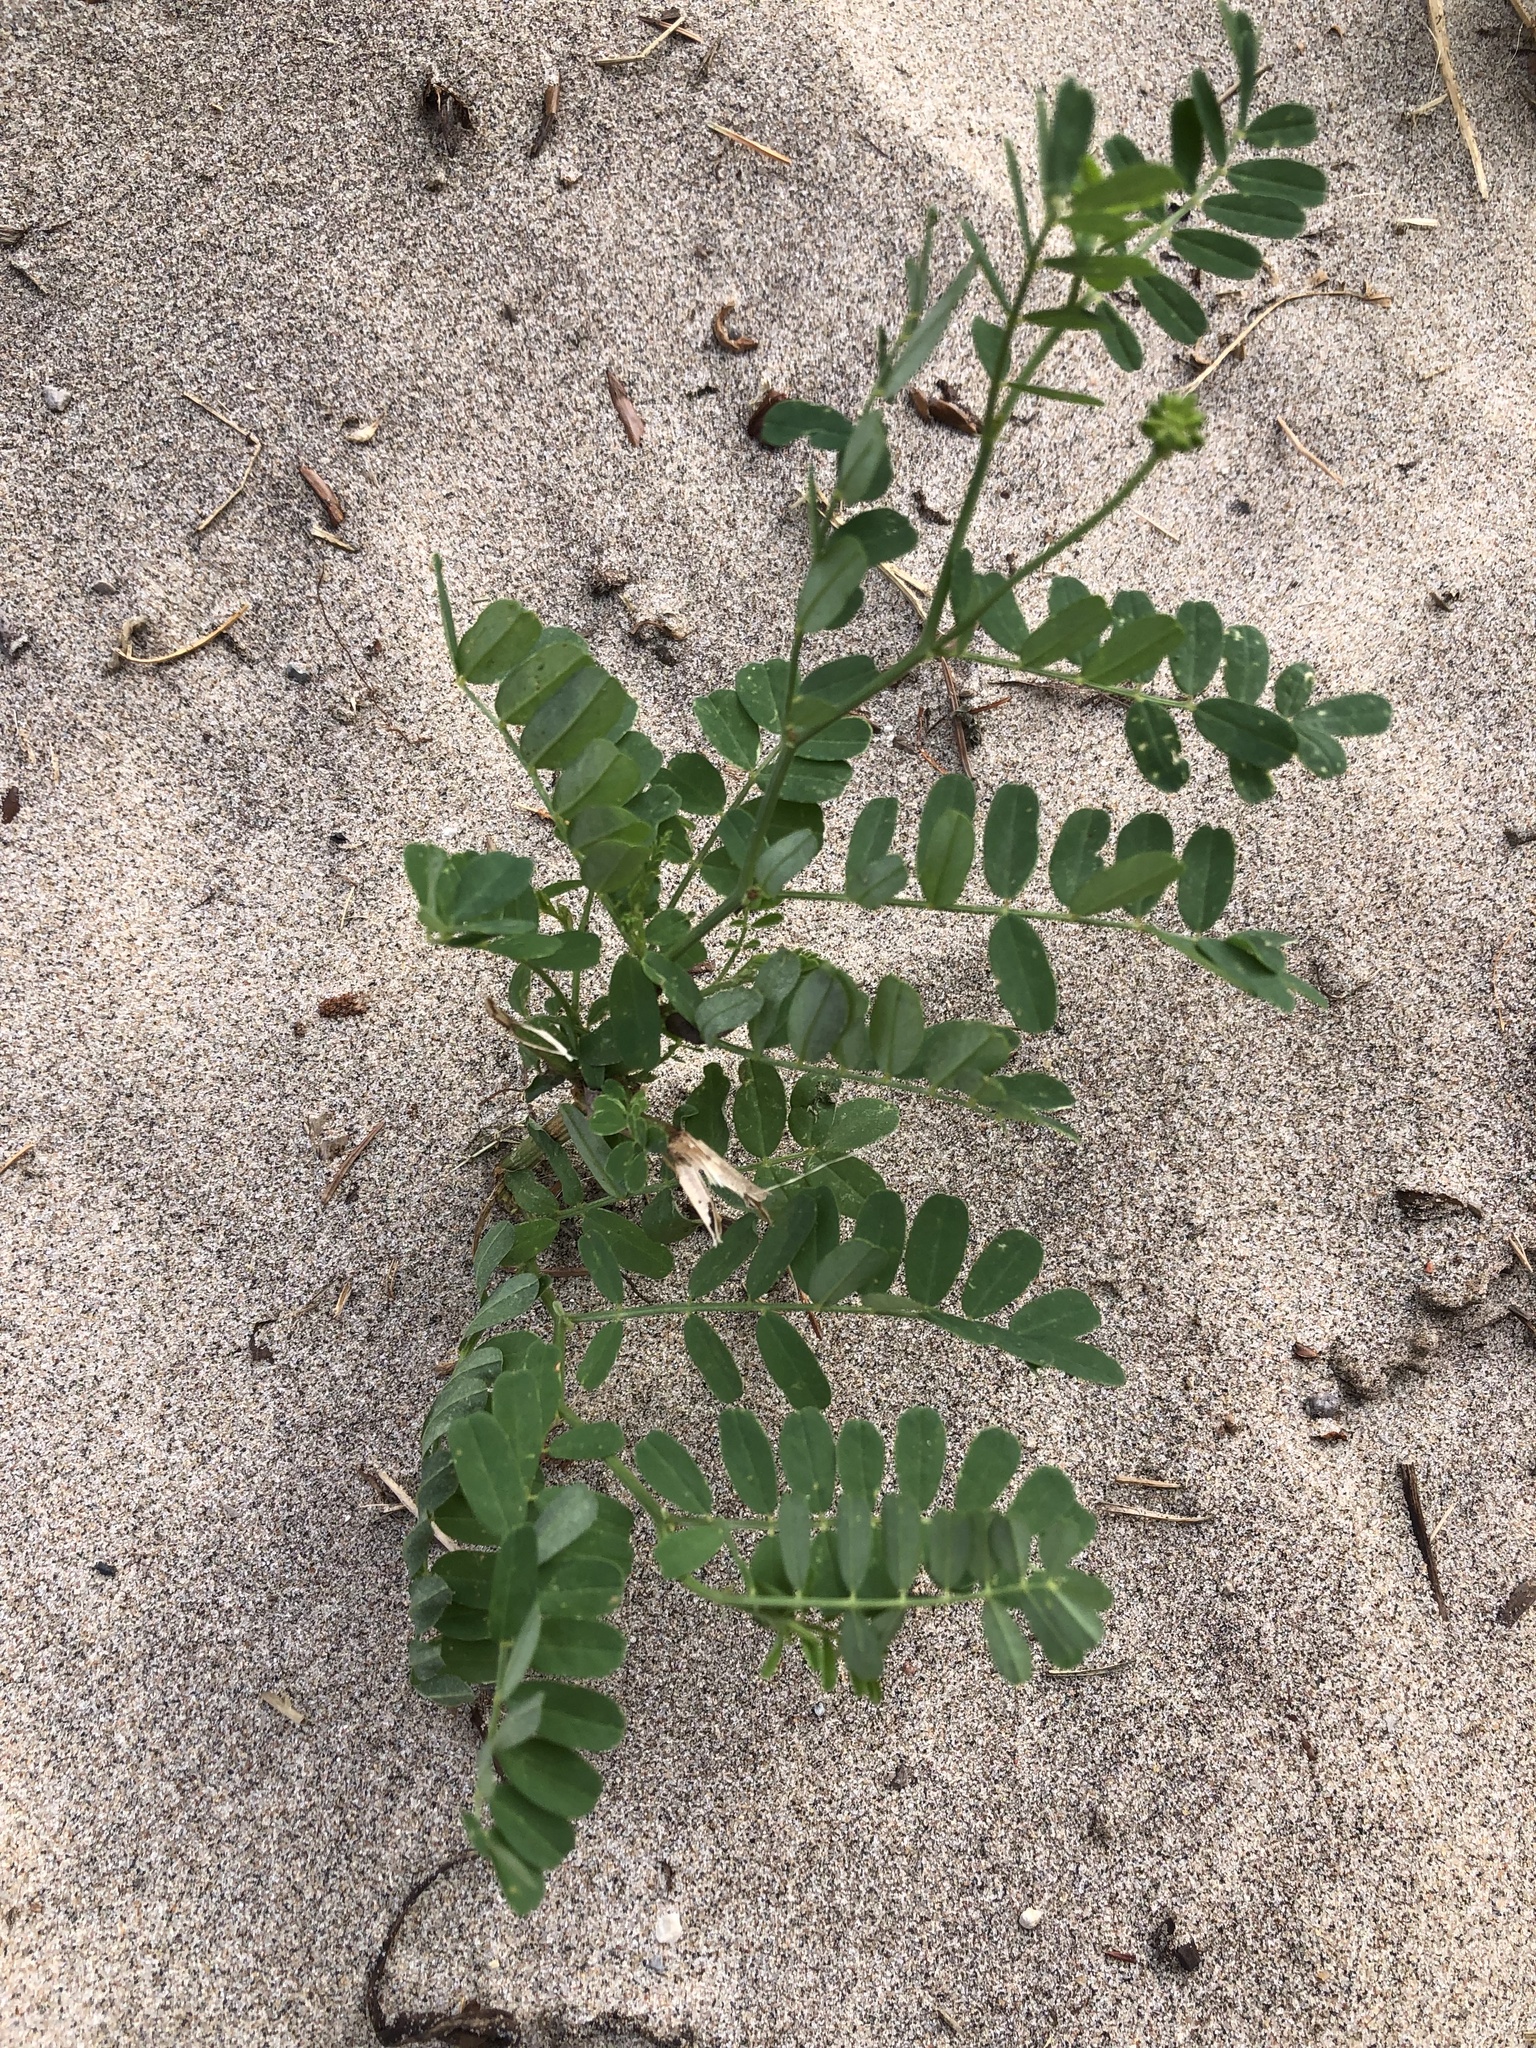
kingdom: Plantae
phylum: Tracheophyta
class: Magnoliopsida
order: Fabales
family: Fabaceae
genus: Coronilla
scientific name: Coronilla varia
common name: Crownvetch
